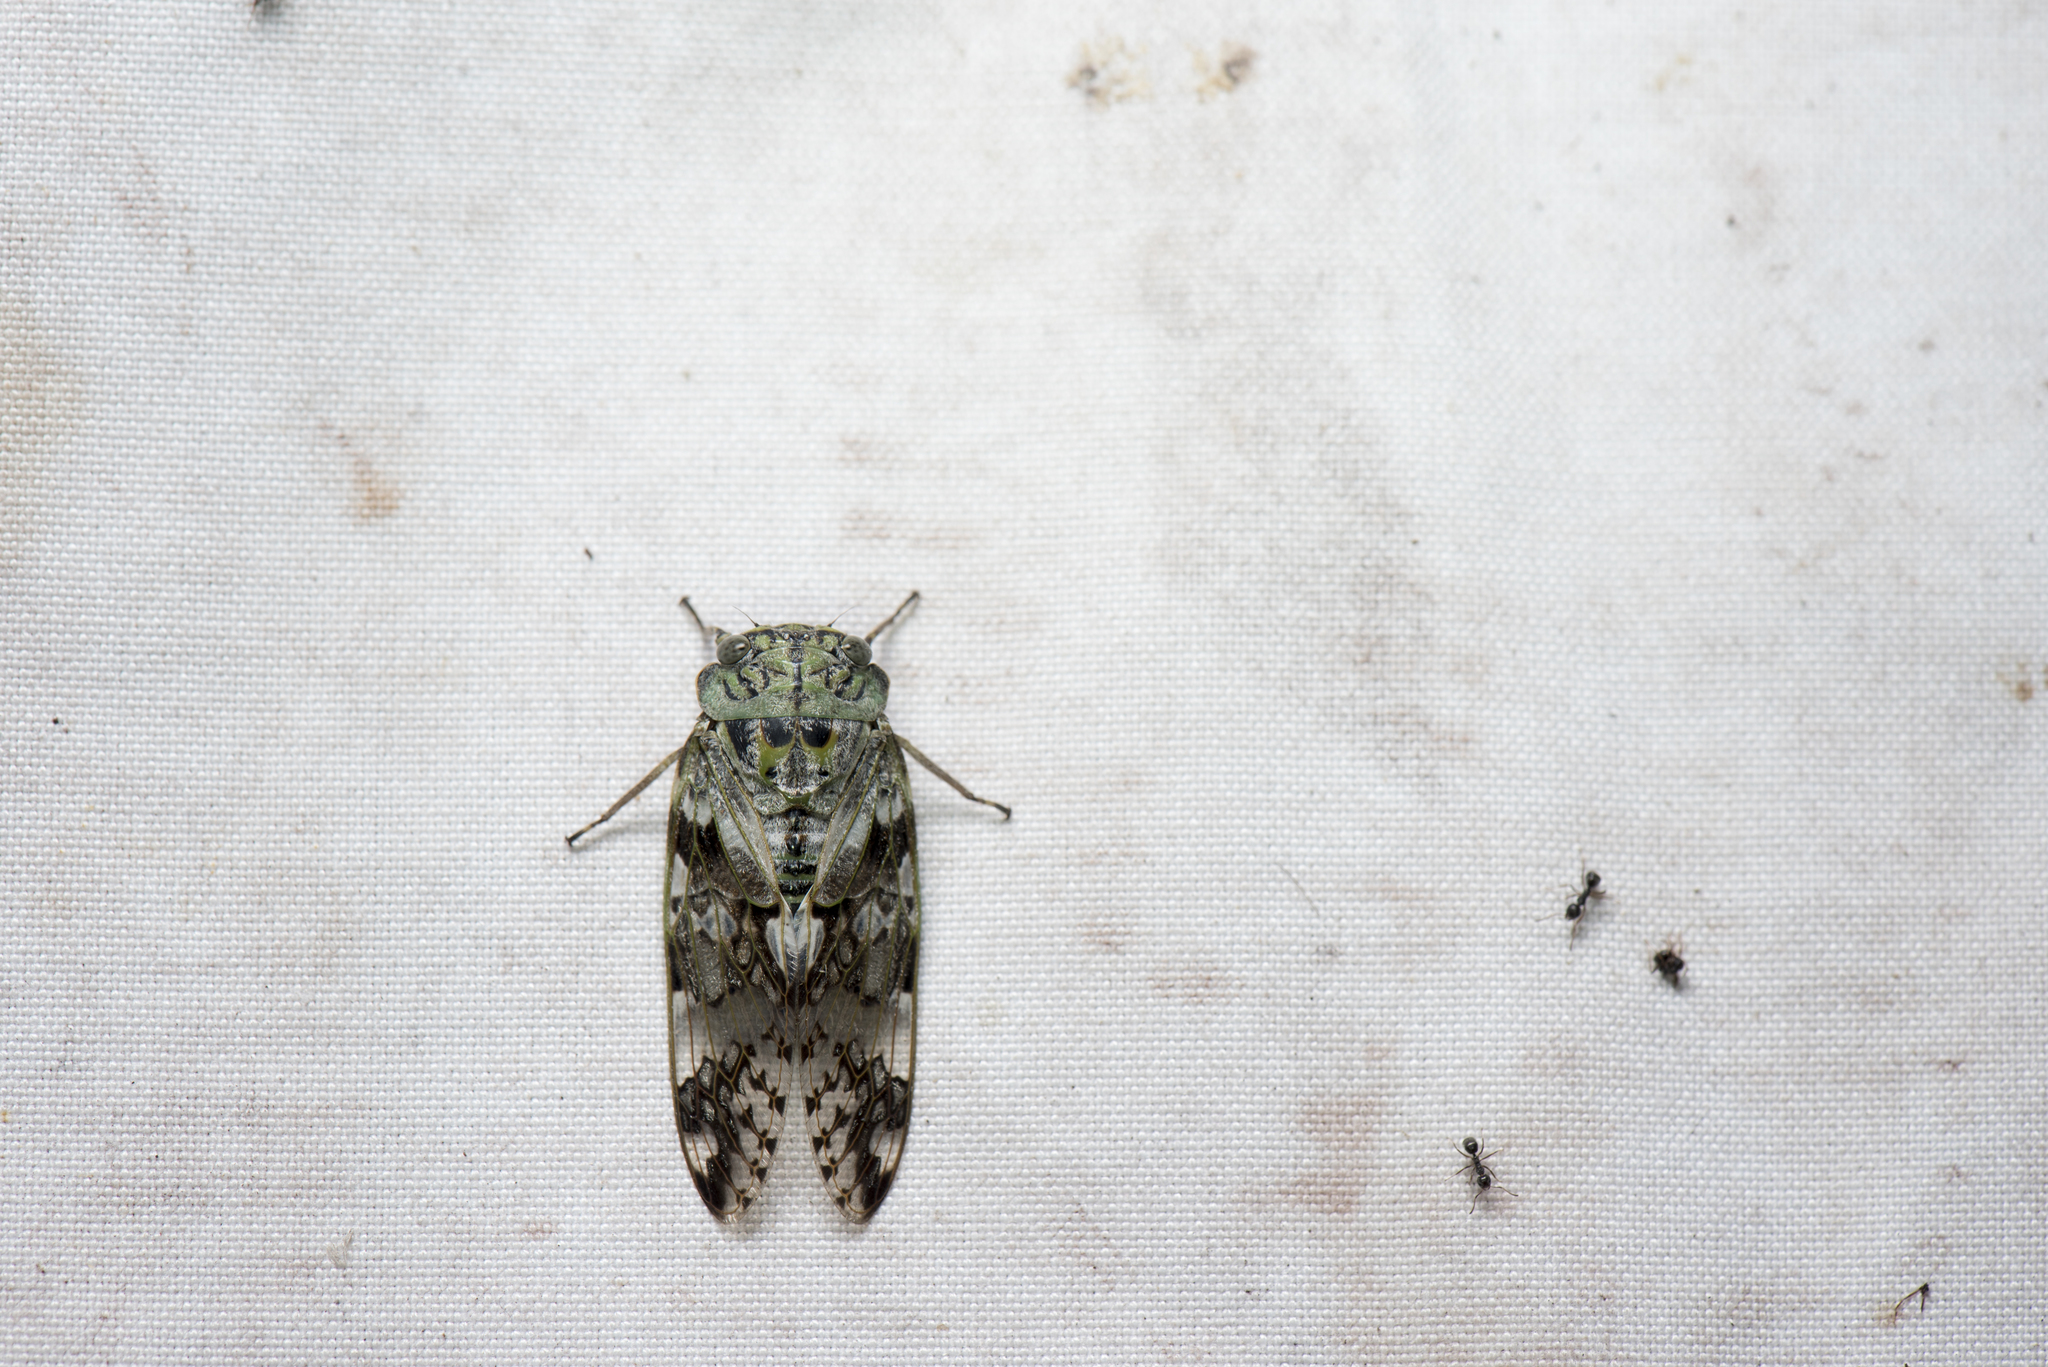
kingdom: Animalia
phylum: Arthropoda
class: Insecta
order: Hemiptera
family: Cicadidae
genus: Platypleura
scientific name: Platypleura takasagona
